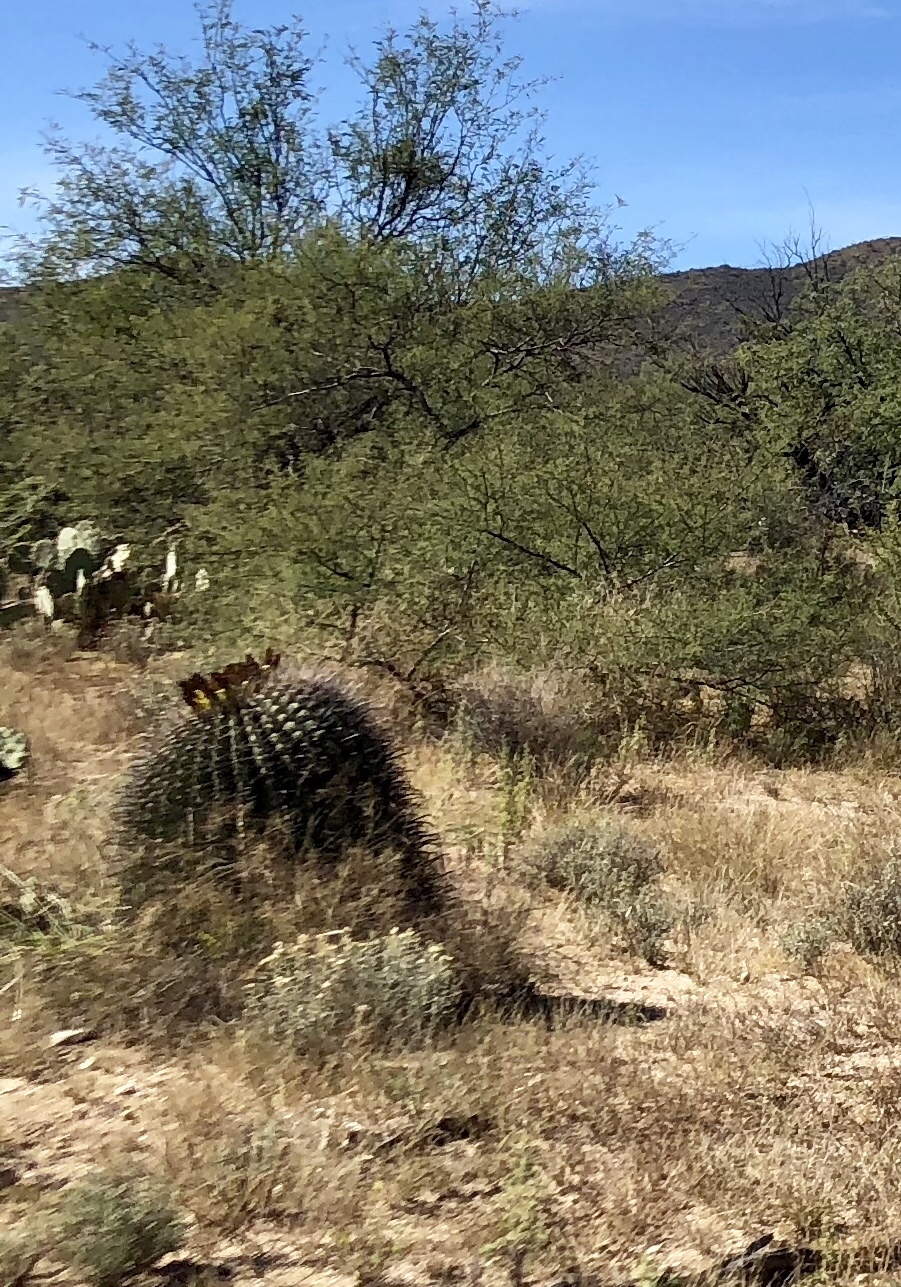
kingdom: Plantae
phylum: Tracheophyta
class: Magnoliopsida
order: Caryophyllales
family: Cactaceae
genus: Ferocactus
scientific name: Ferocactus wislizeni
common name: Candy barrel cactus
